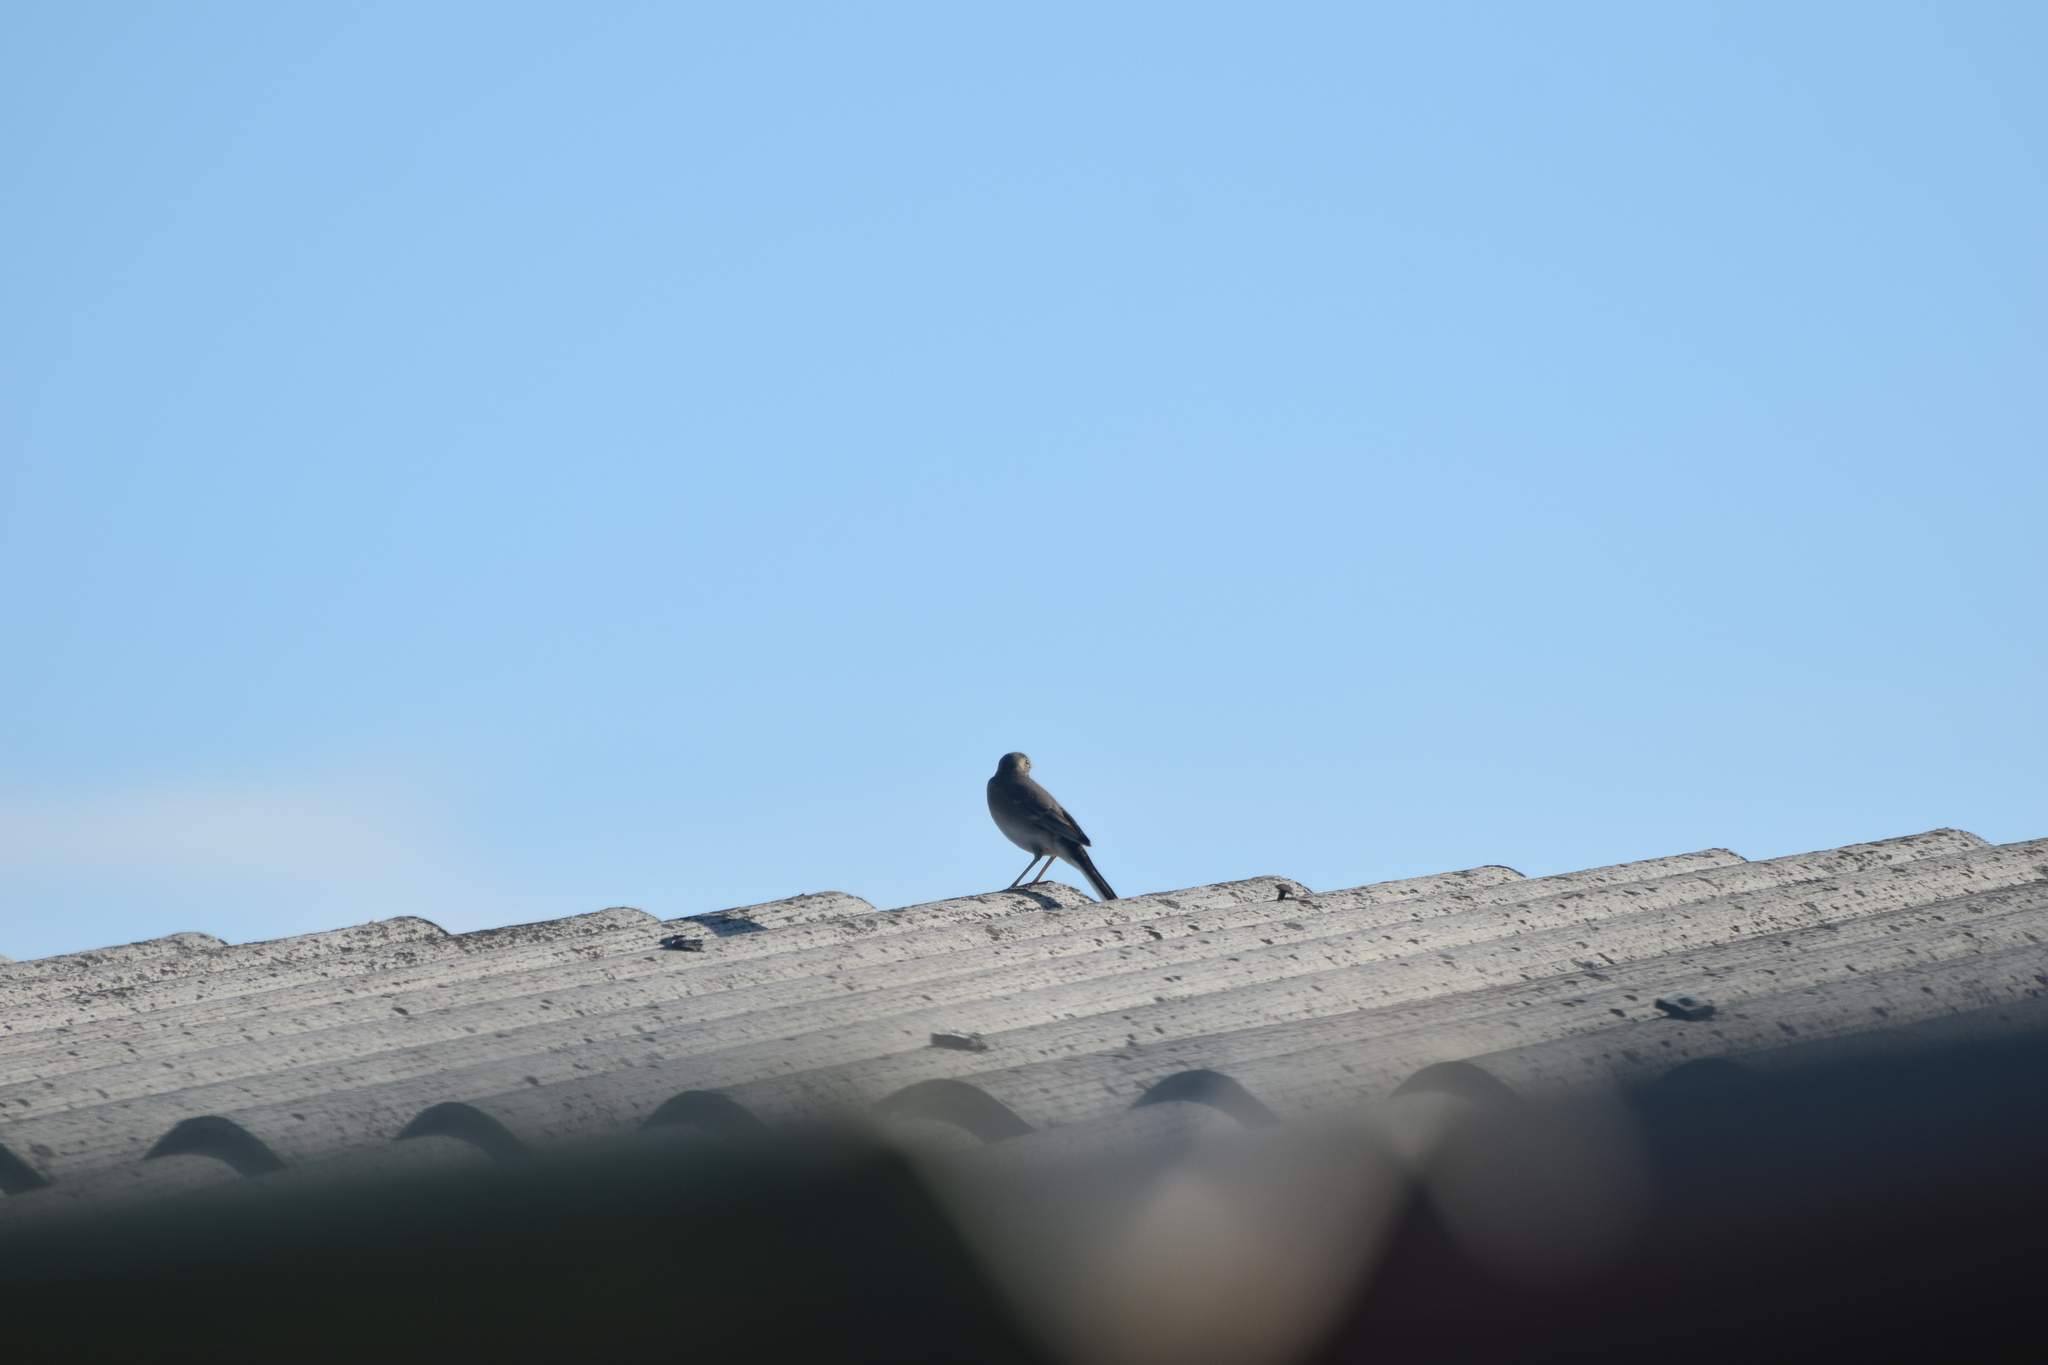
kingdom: Animalia
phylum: Chordata
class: Aves
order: Passeriformes
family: Motacillidae
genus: Motacilla
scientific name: Motacilla alba
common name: White wagtail
